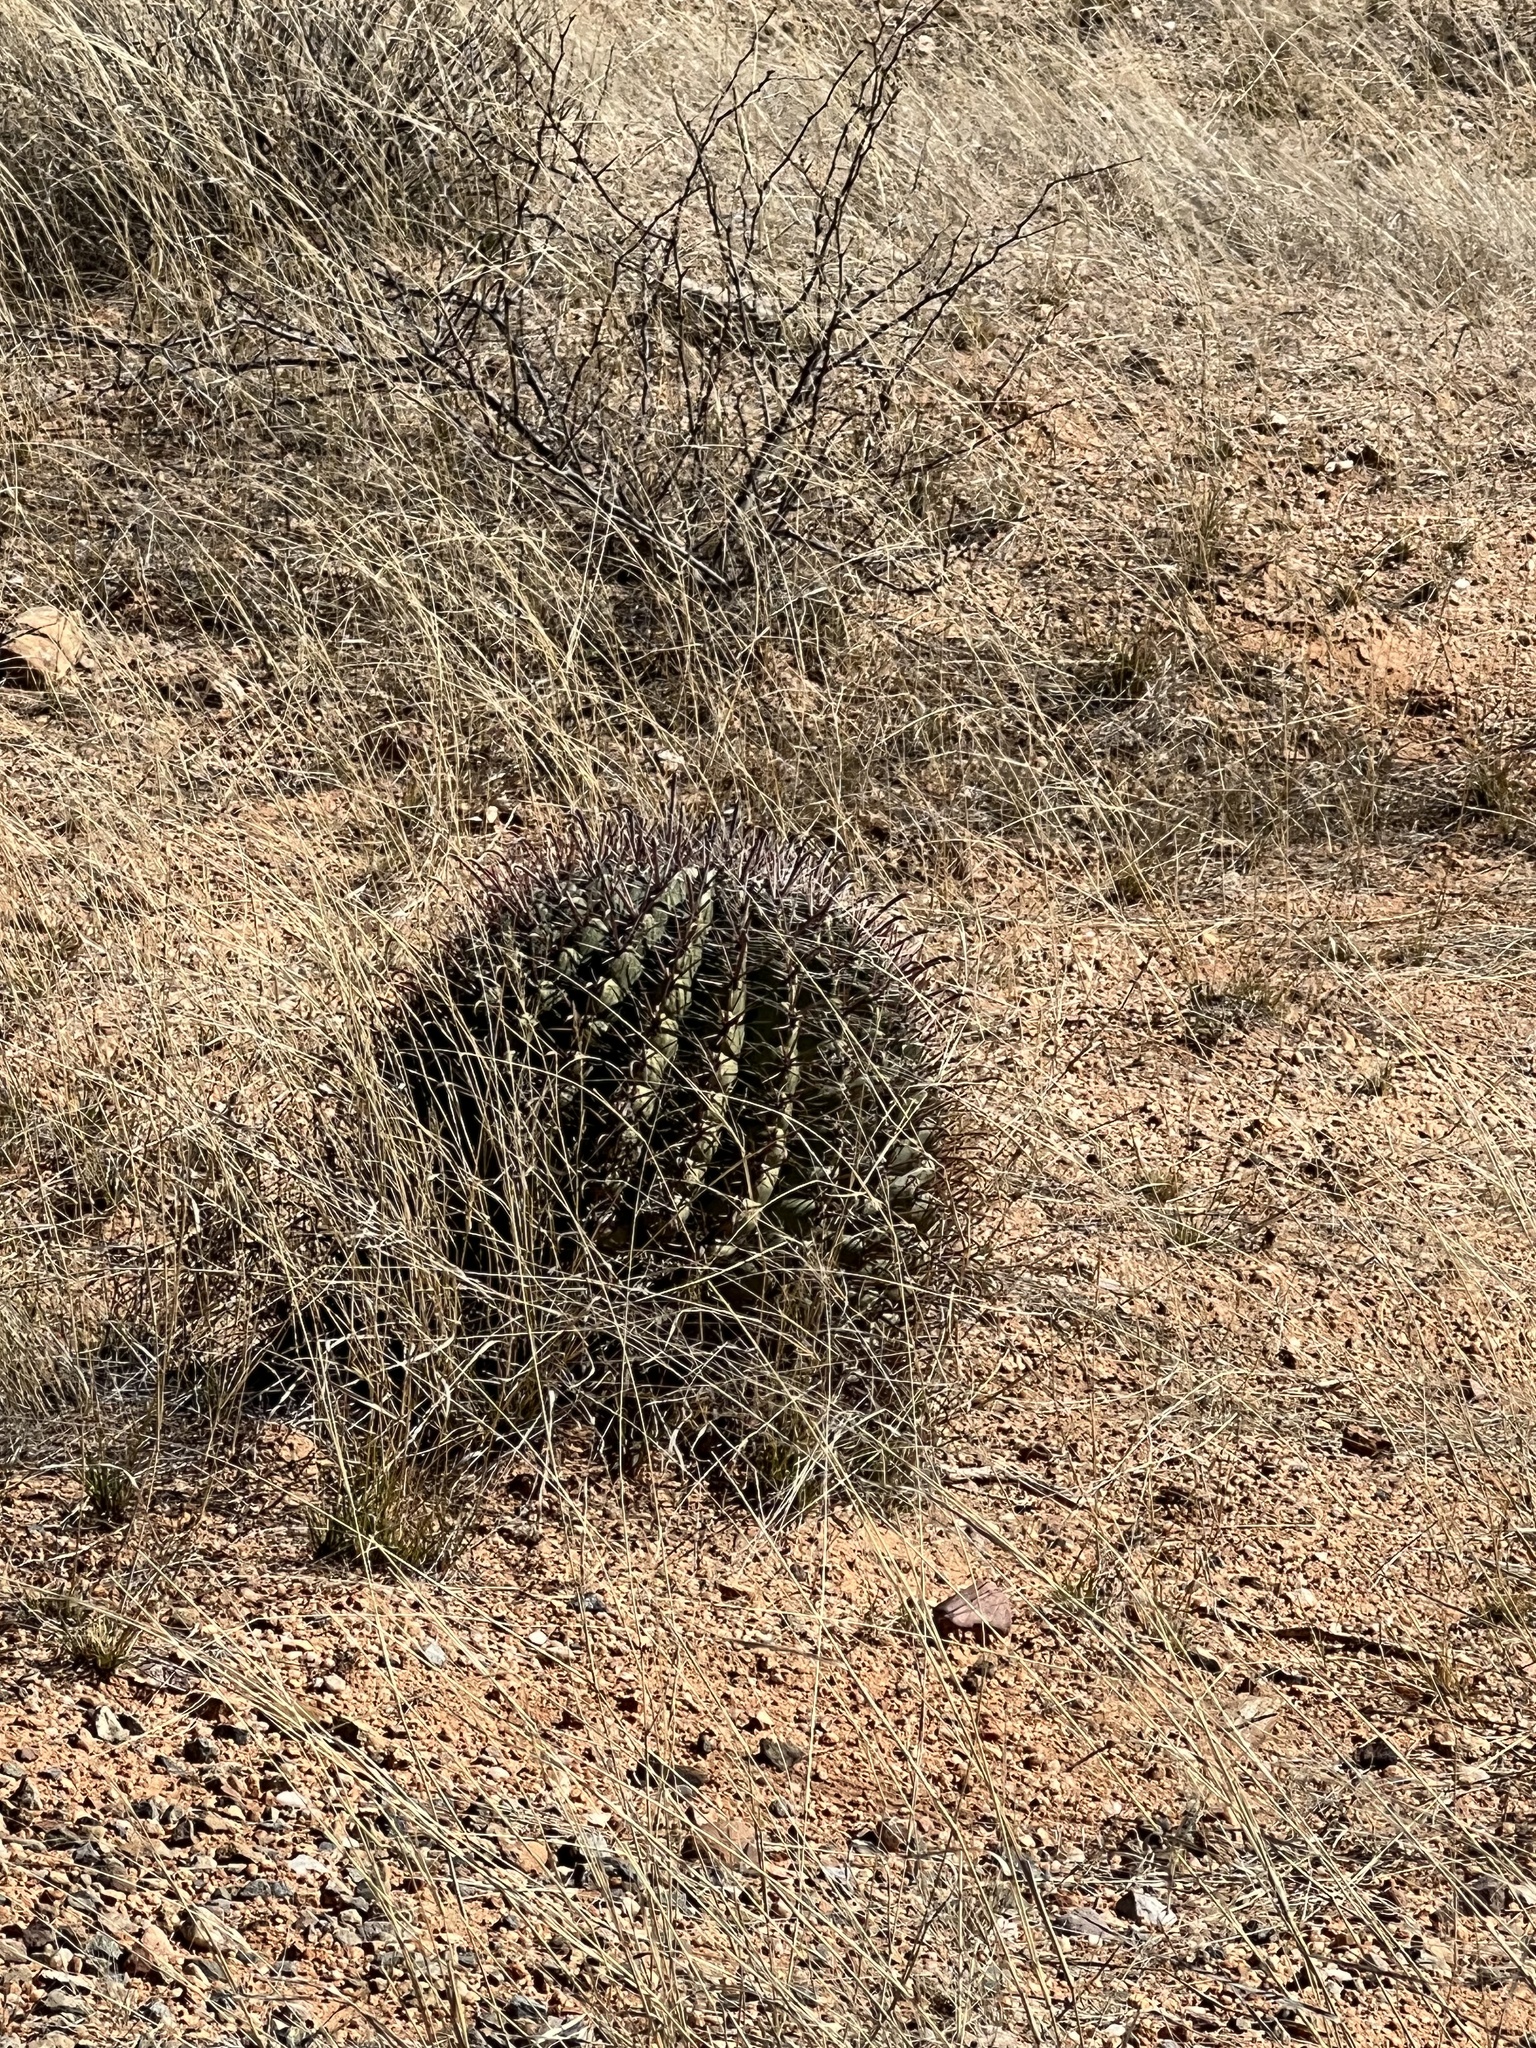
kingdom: Plantae
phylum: Tracheophyta
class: Magnoliopsida
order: Caryophyllales
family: Cactaceae
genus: Ferocactus
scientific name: Ferocactus wislizeni
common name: Candy barrel cactus
